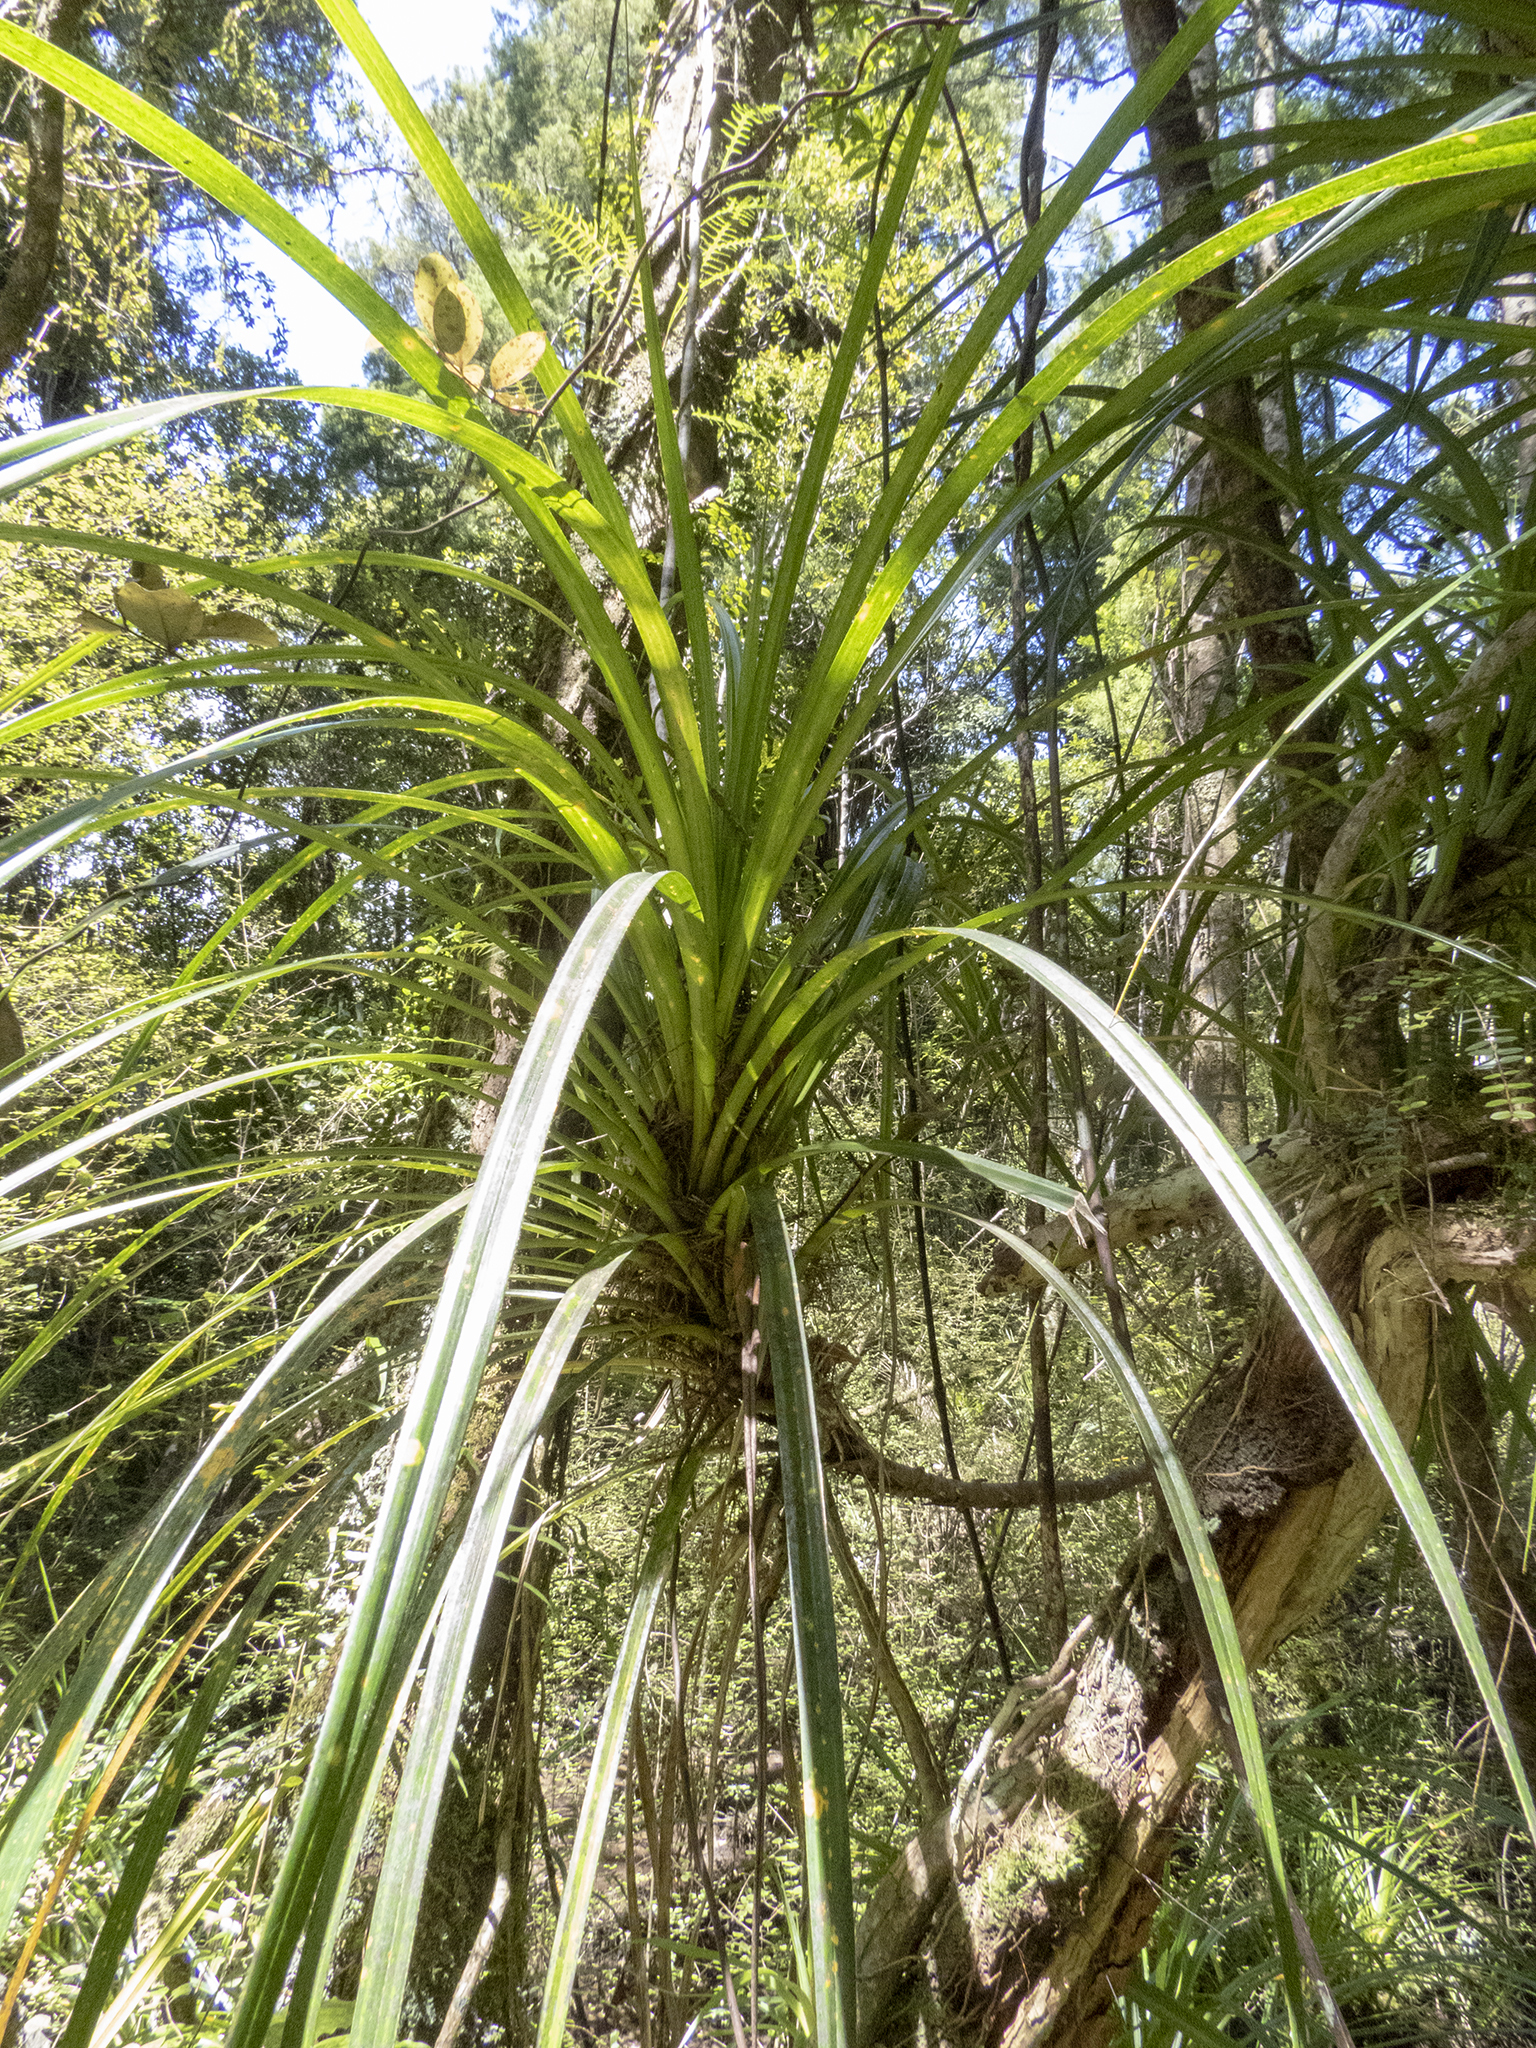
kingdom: Plantae
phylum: Tracheophyta
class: Liliopsida
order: Pandanales
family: Pandanaceae
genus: Freycinetia
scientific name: Freycinetia banksii
